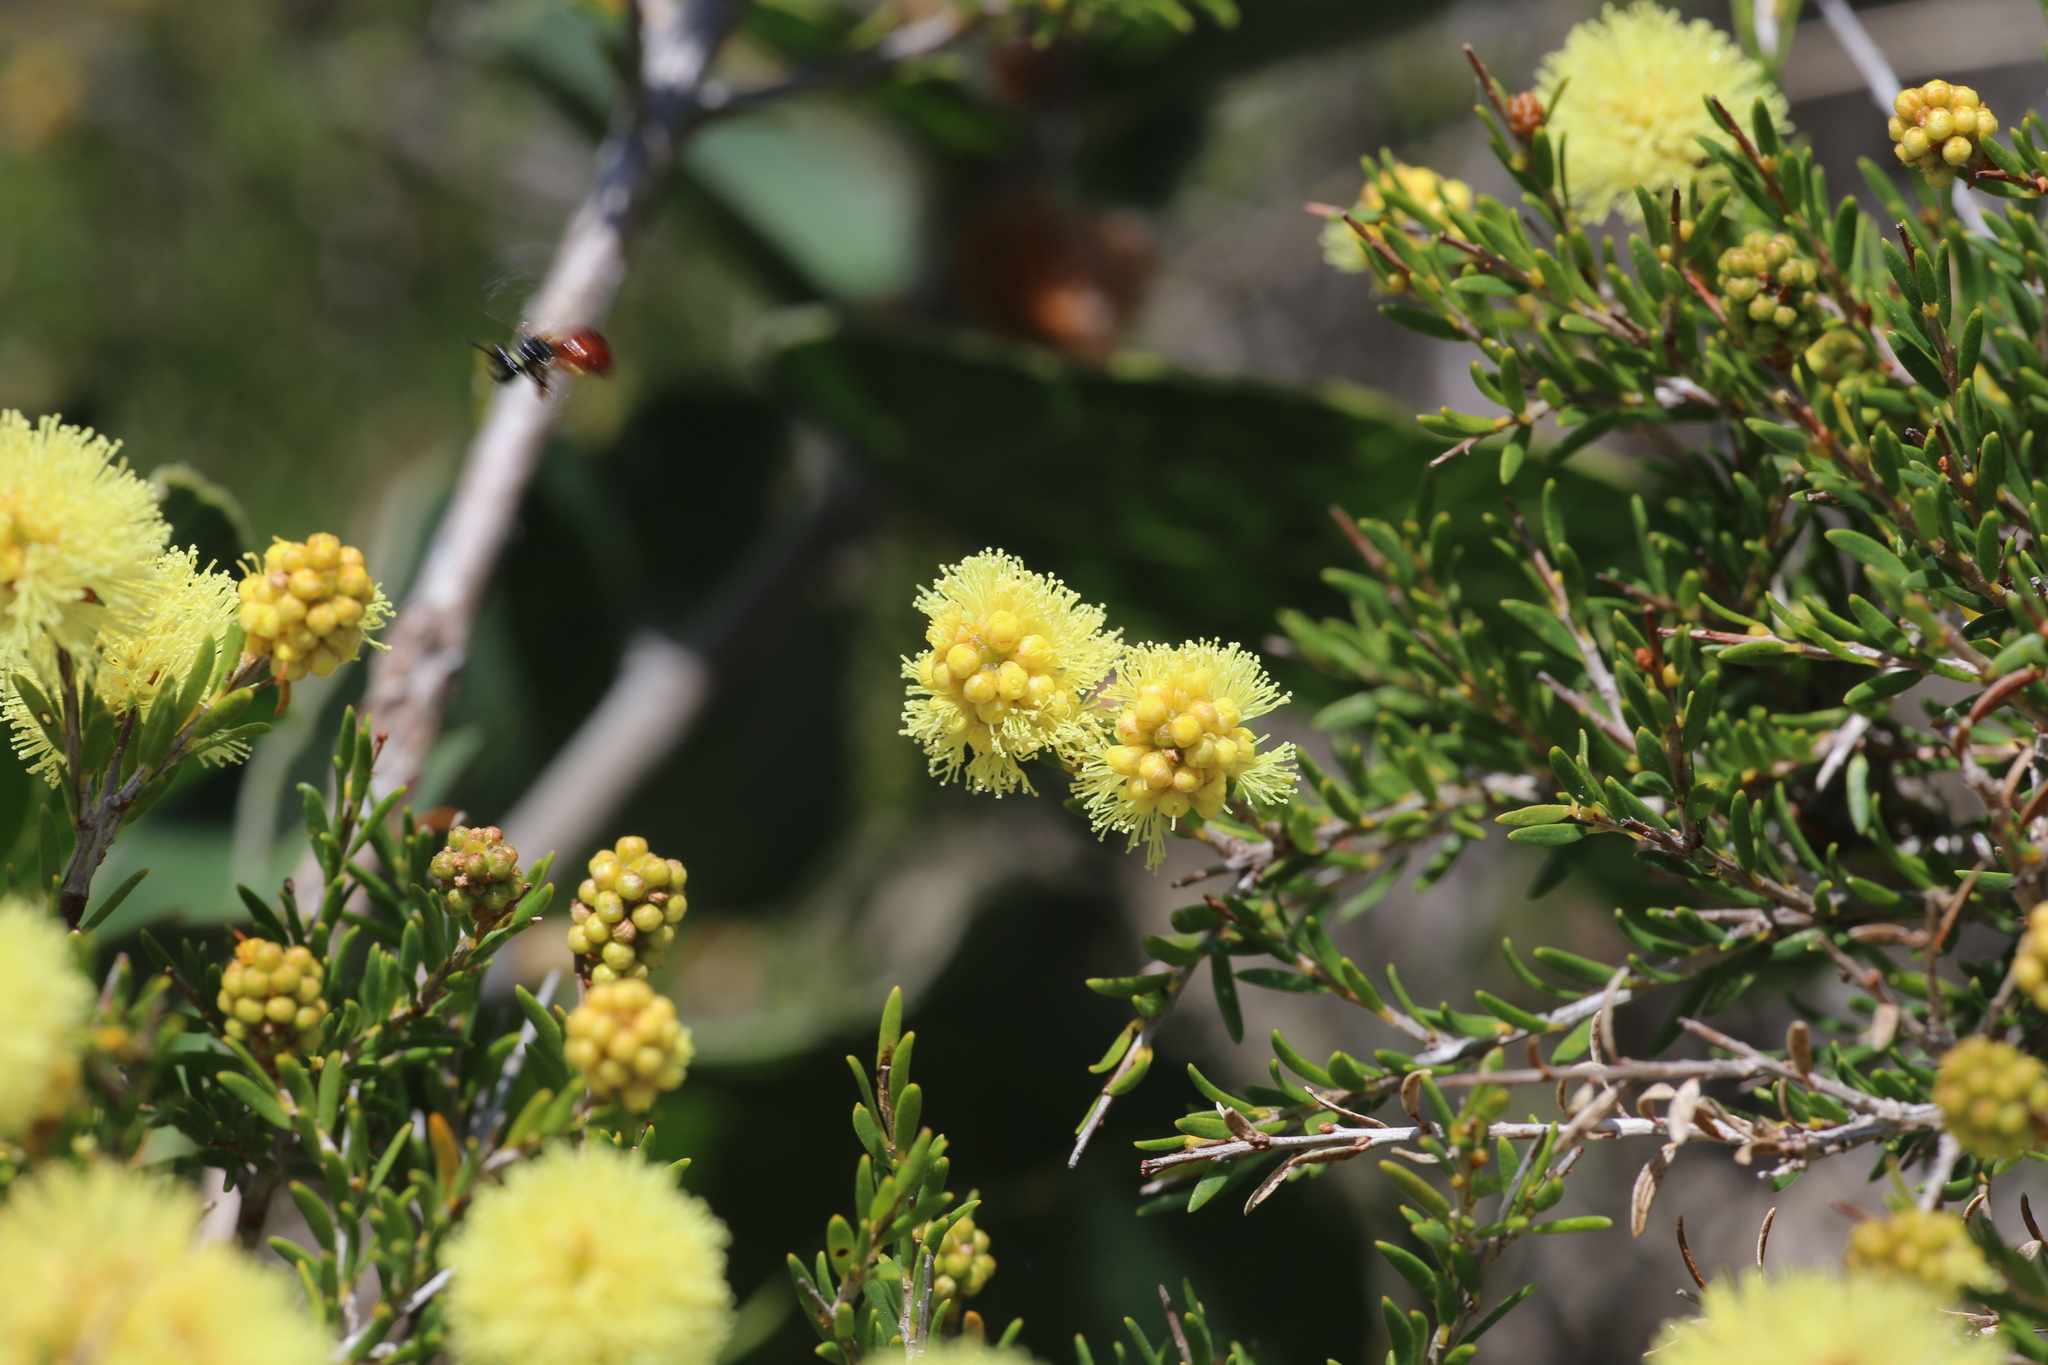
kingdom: Plantae
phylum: Tracheophyta
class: Magnoliopsida
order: Myrtales
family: Myrtaceae
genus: Melaleuca
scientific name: Melaleuca thymoides
